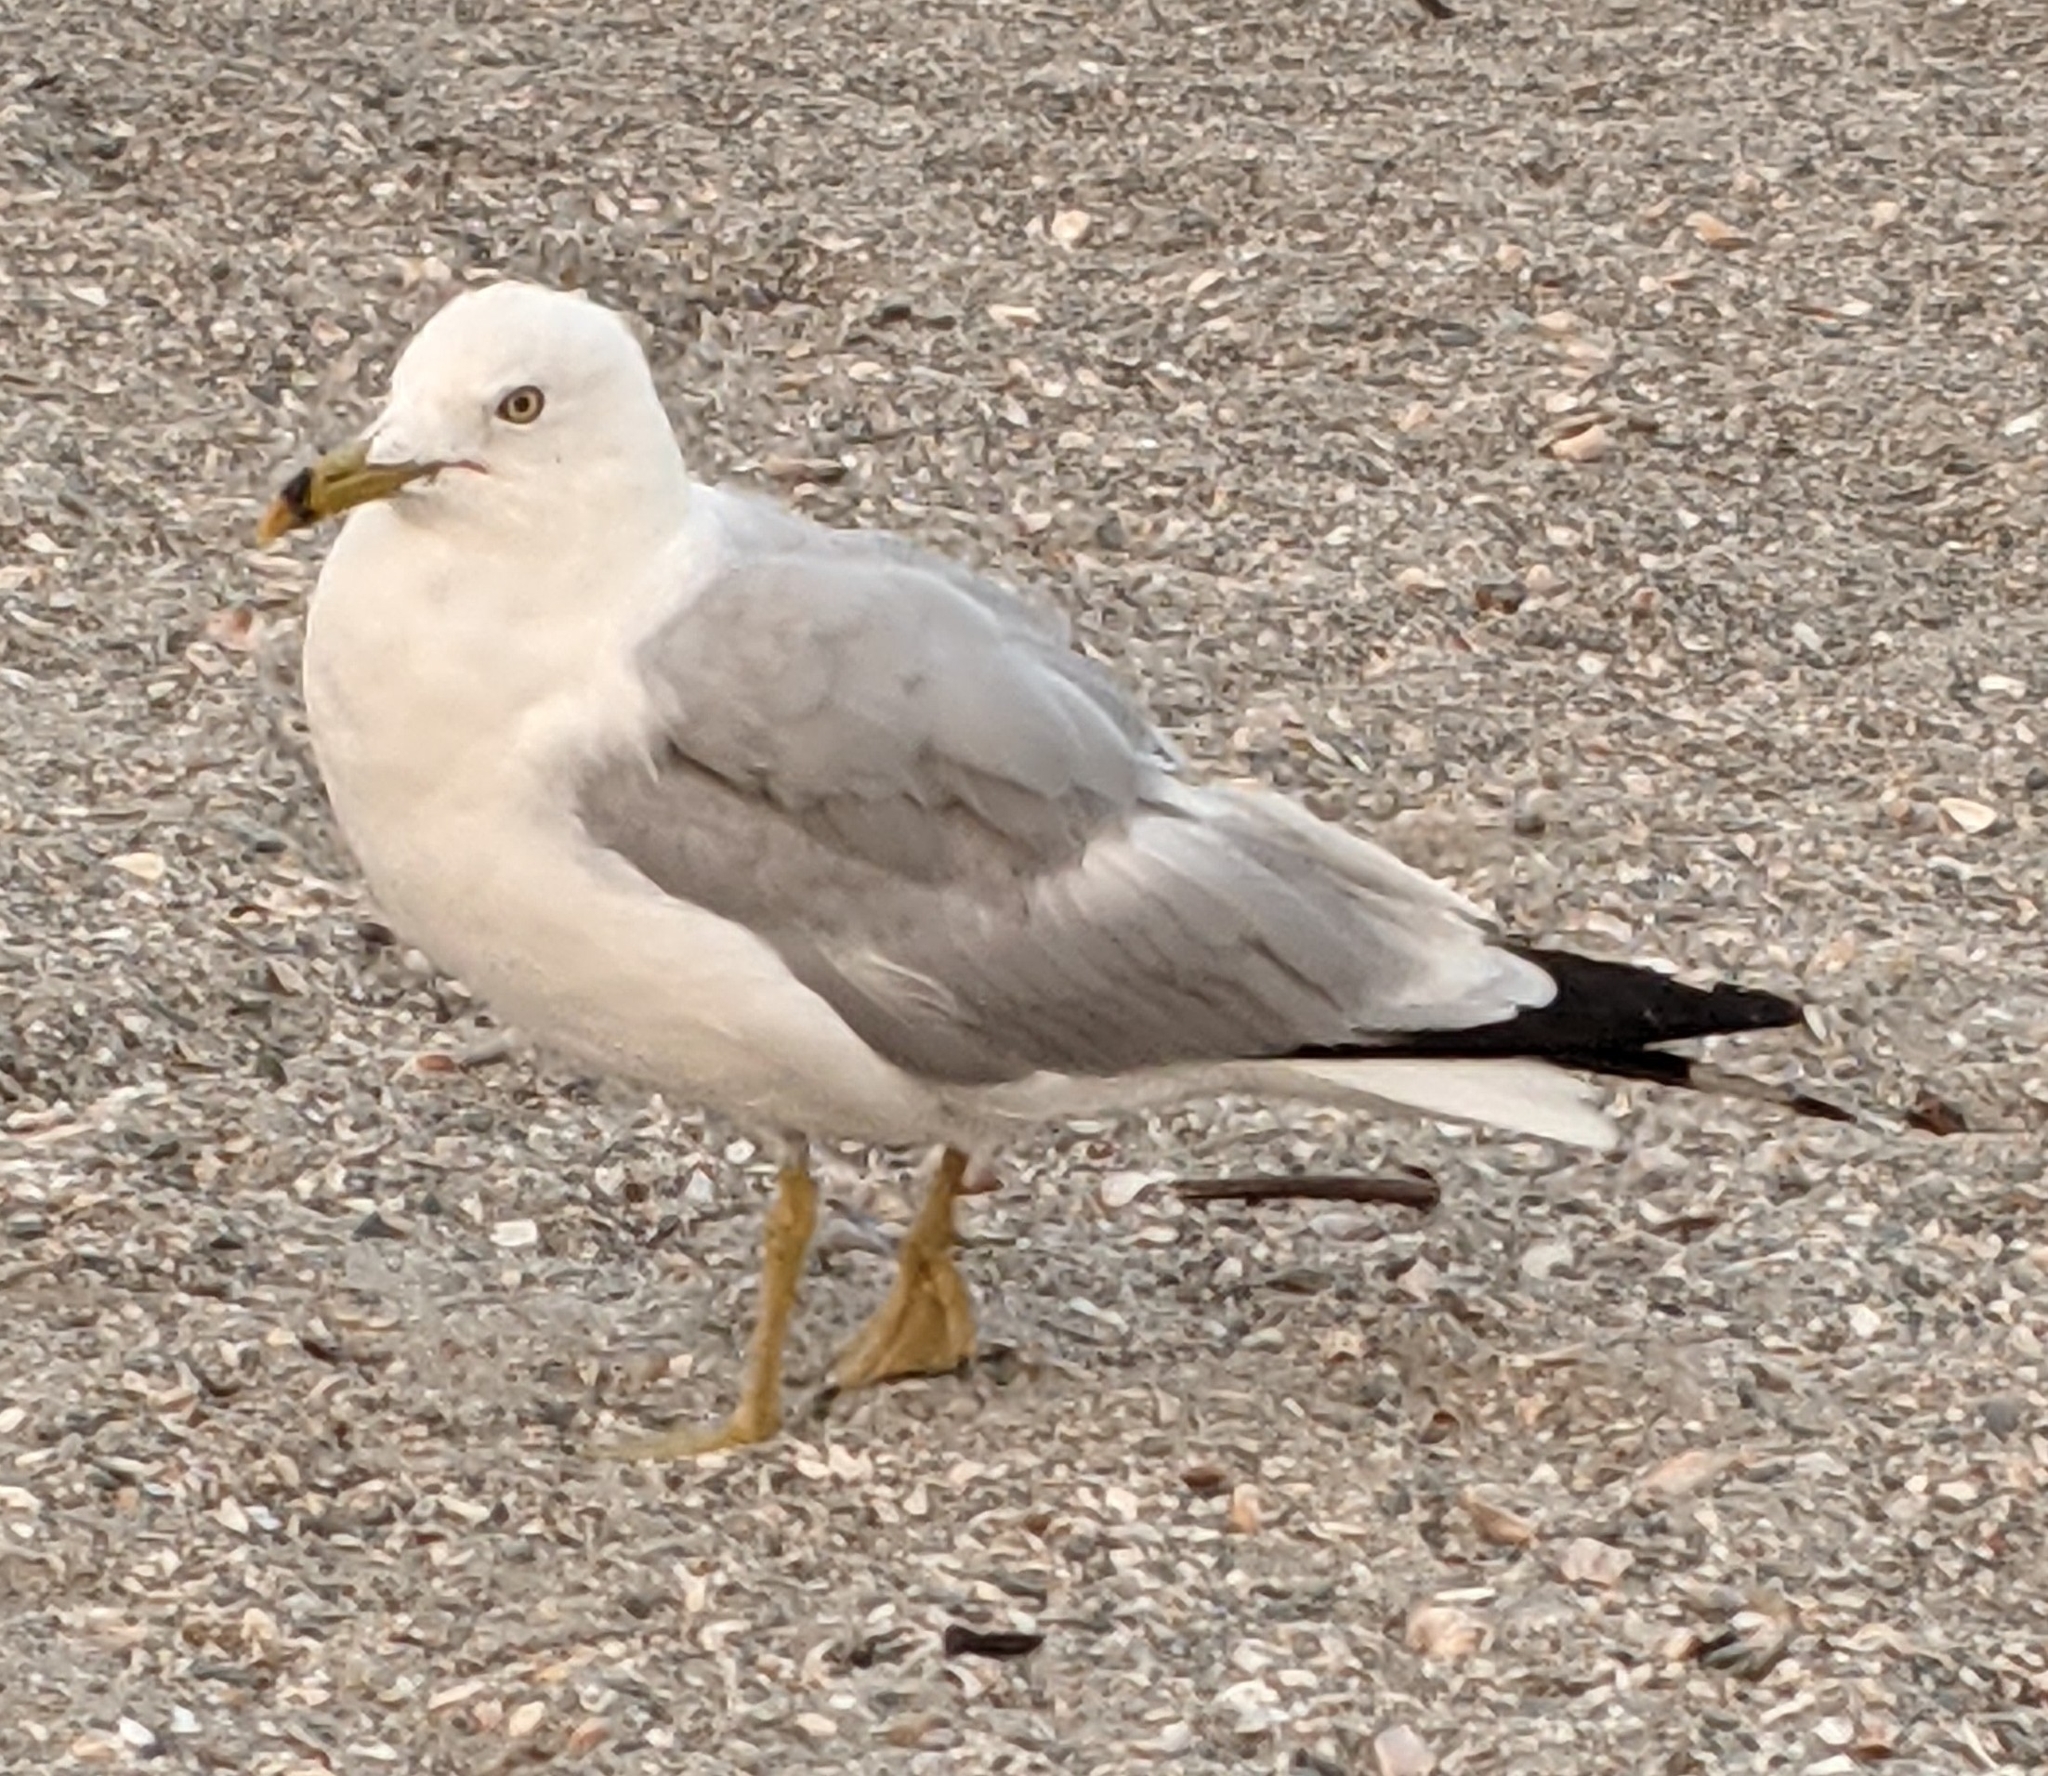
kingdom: Animalia
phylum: Chordata
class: Aves
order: Charadriiformes
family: Laridae
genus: Larus
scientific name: Larus delawarensis
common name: Ring-billed gull
